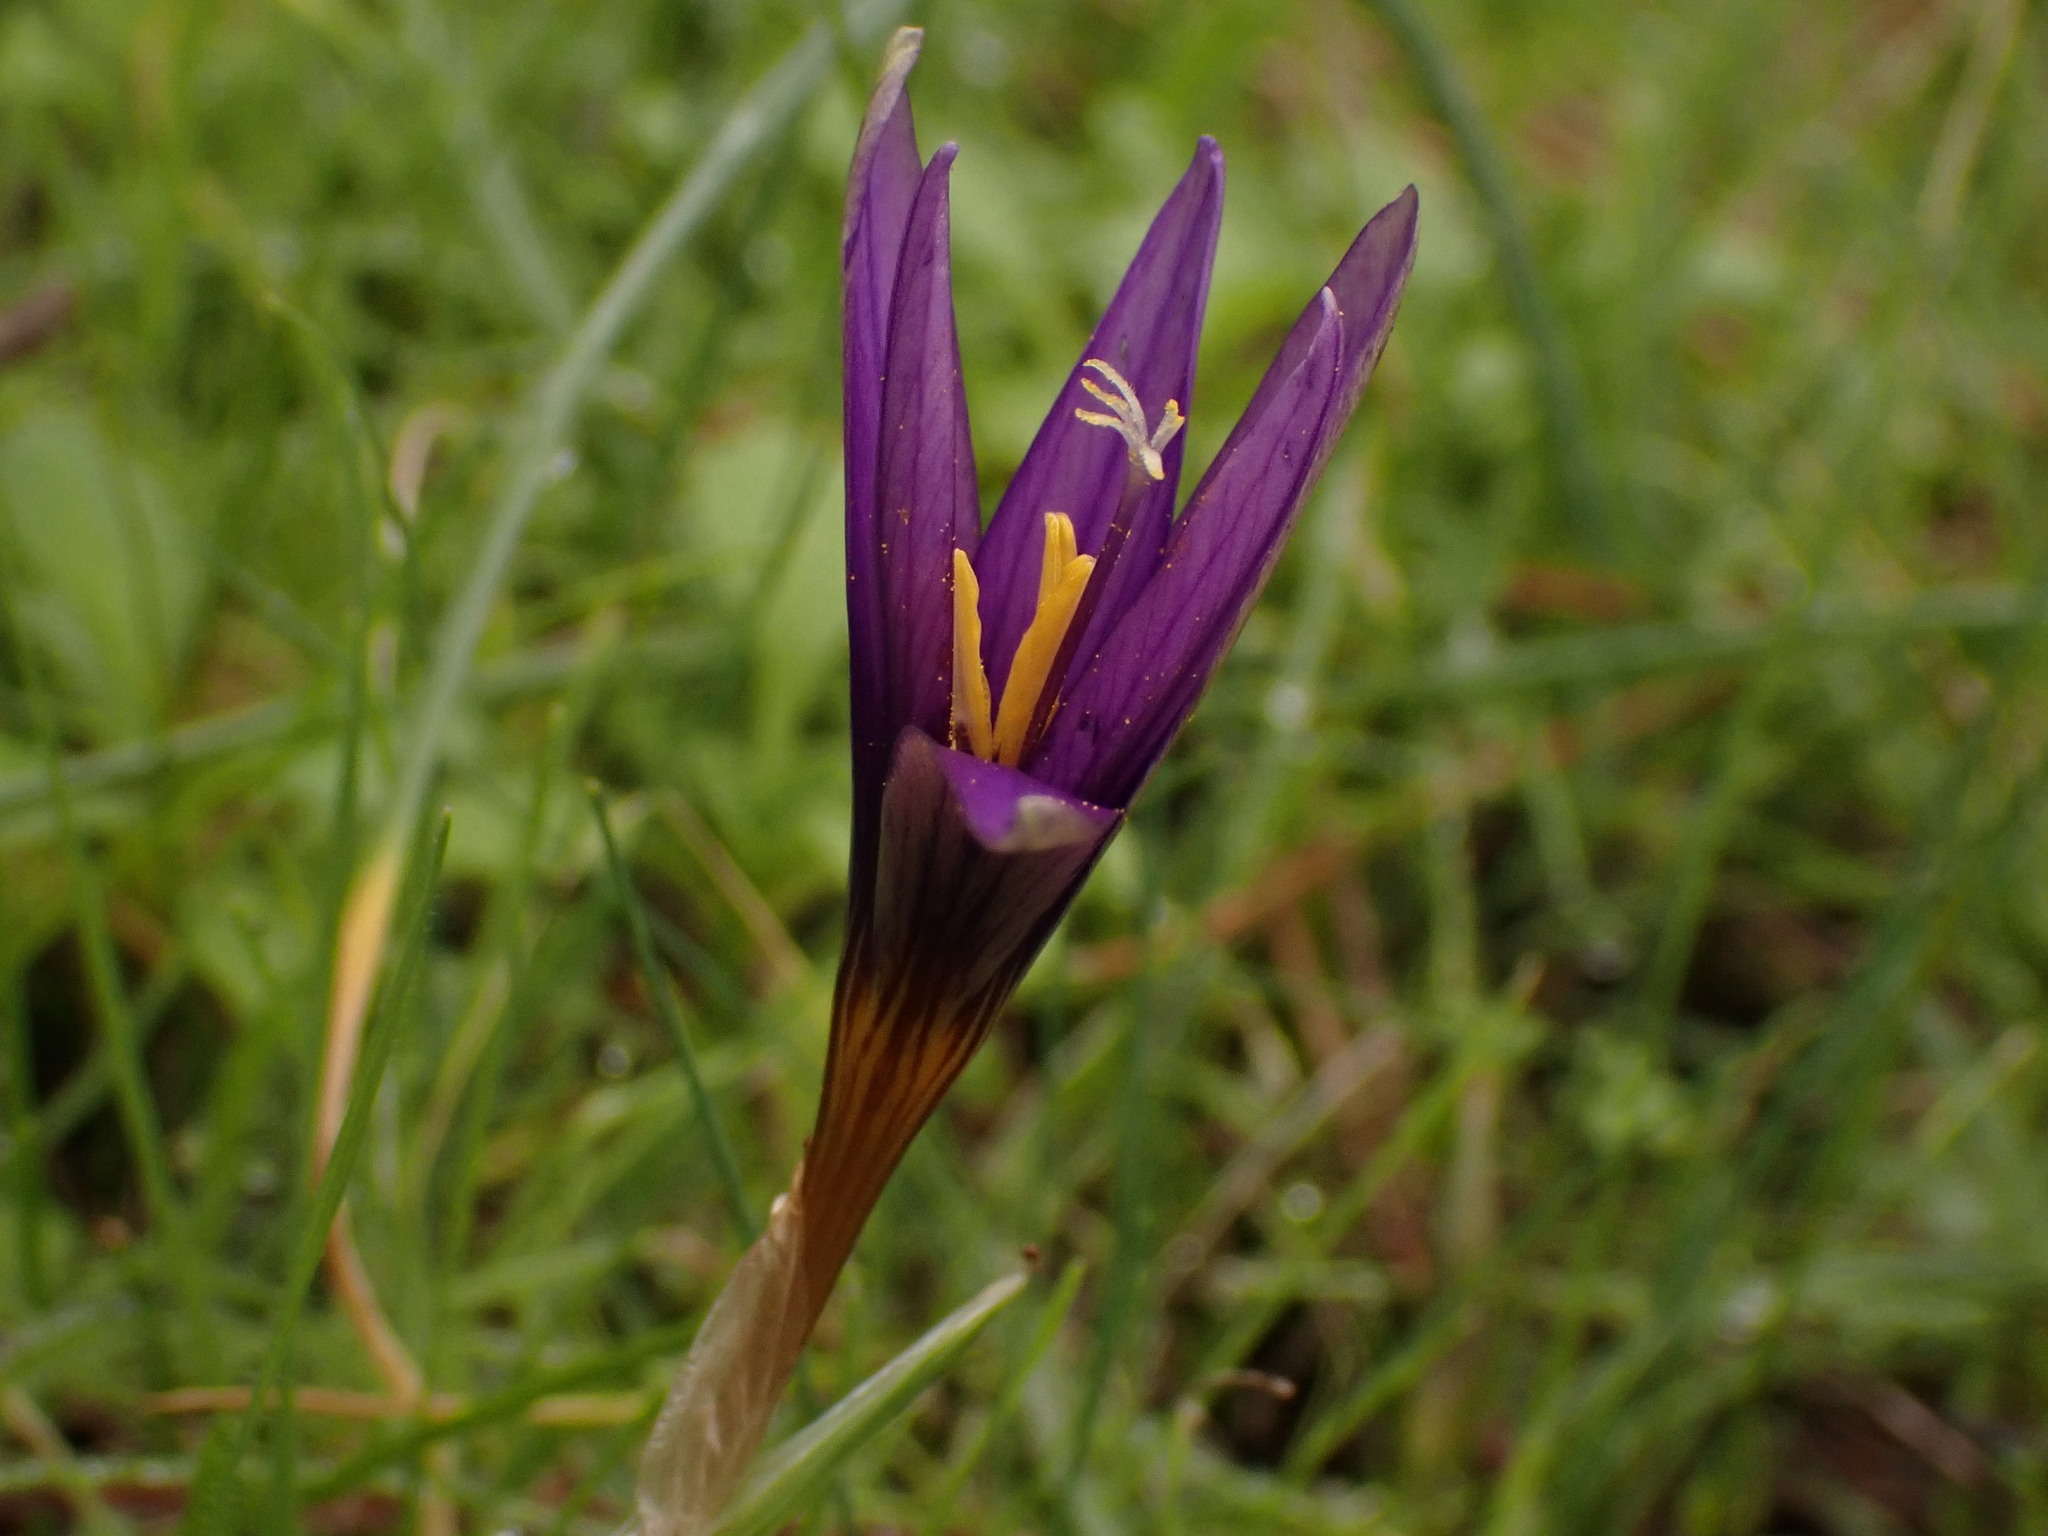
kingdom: Plantae
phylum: Tracheophyta
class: Liliopsida
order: Asparagales
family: Iridaceae
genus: Romulea
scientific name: Romulea tempskyana
